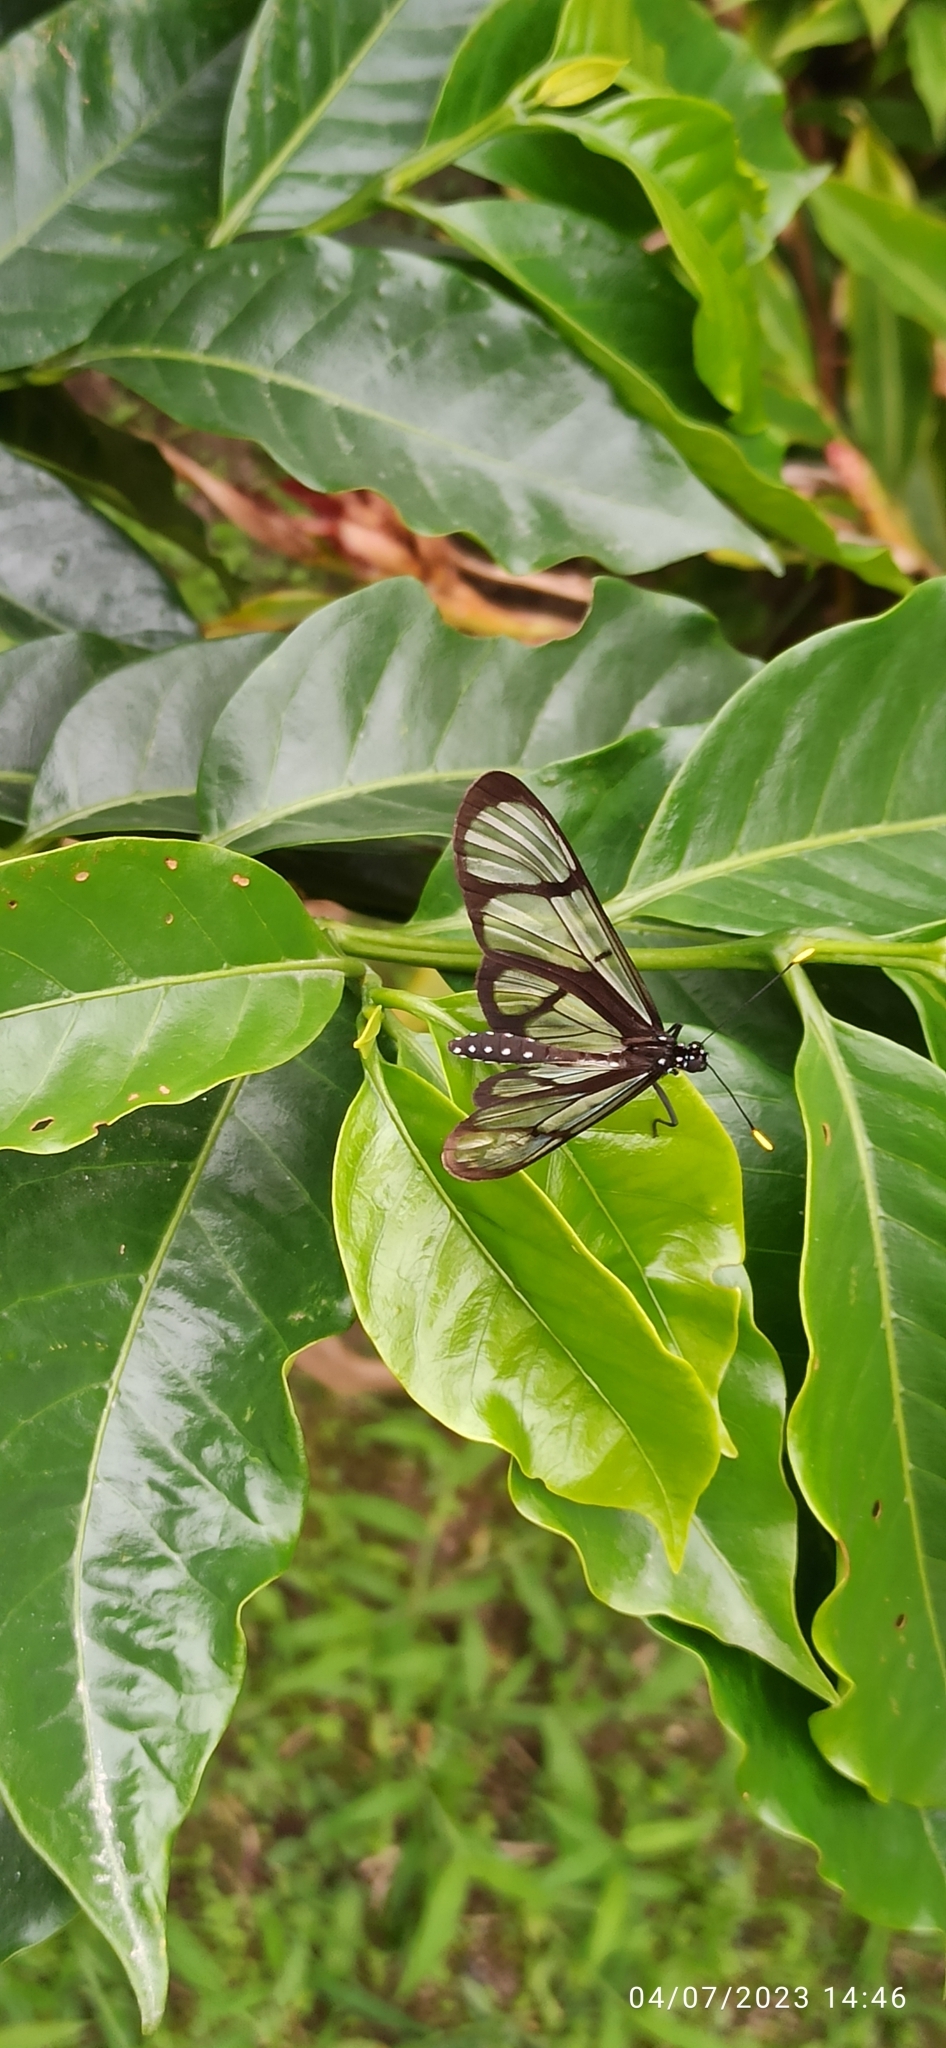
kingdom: Animalia
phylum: Arthropoda
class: Insecta
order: Lepidoptera
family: Nymphalidae
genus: Methona
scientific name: Methona confusa
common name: Confusa tigerwing
